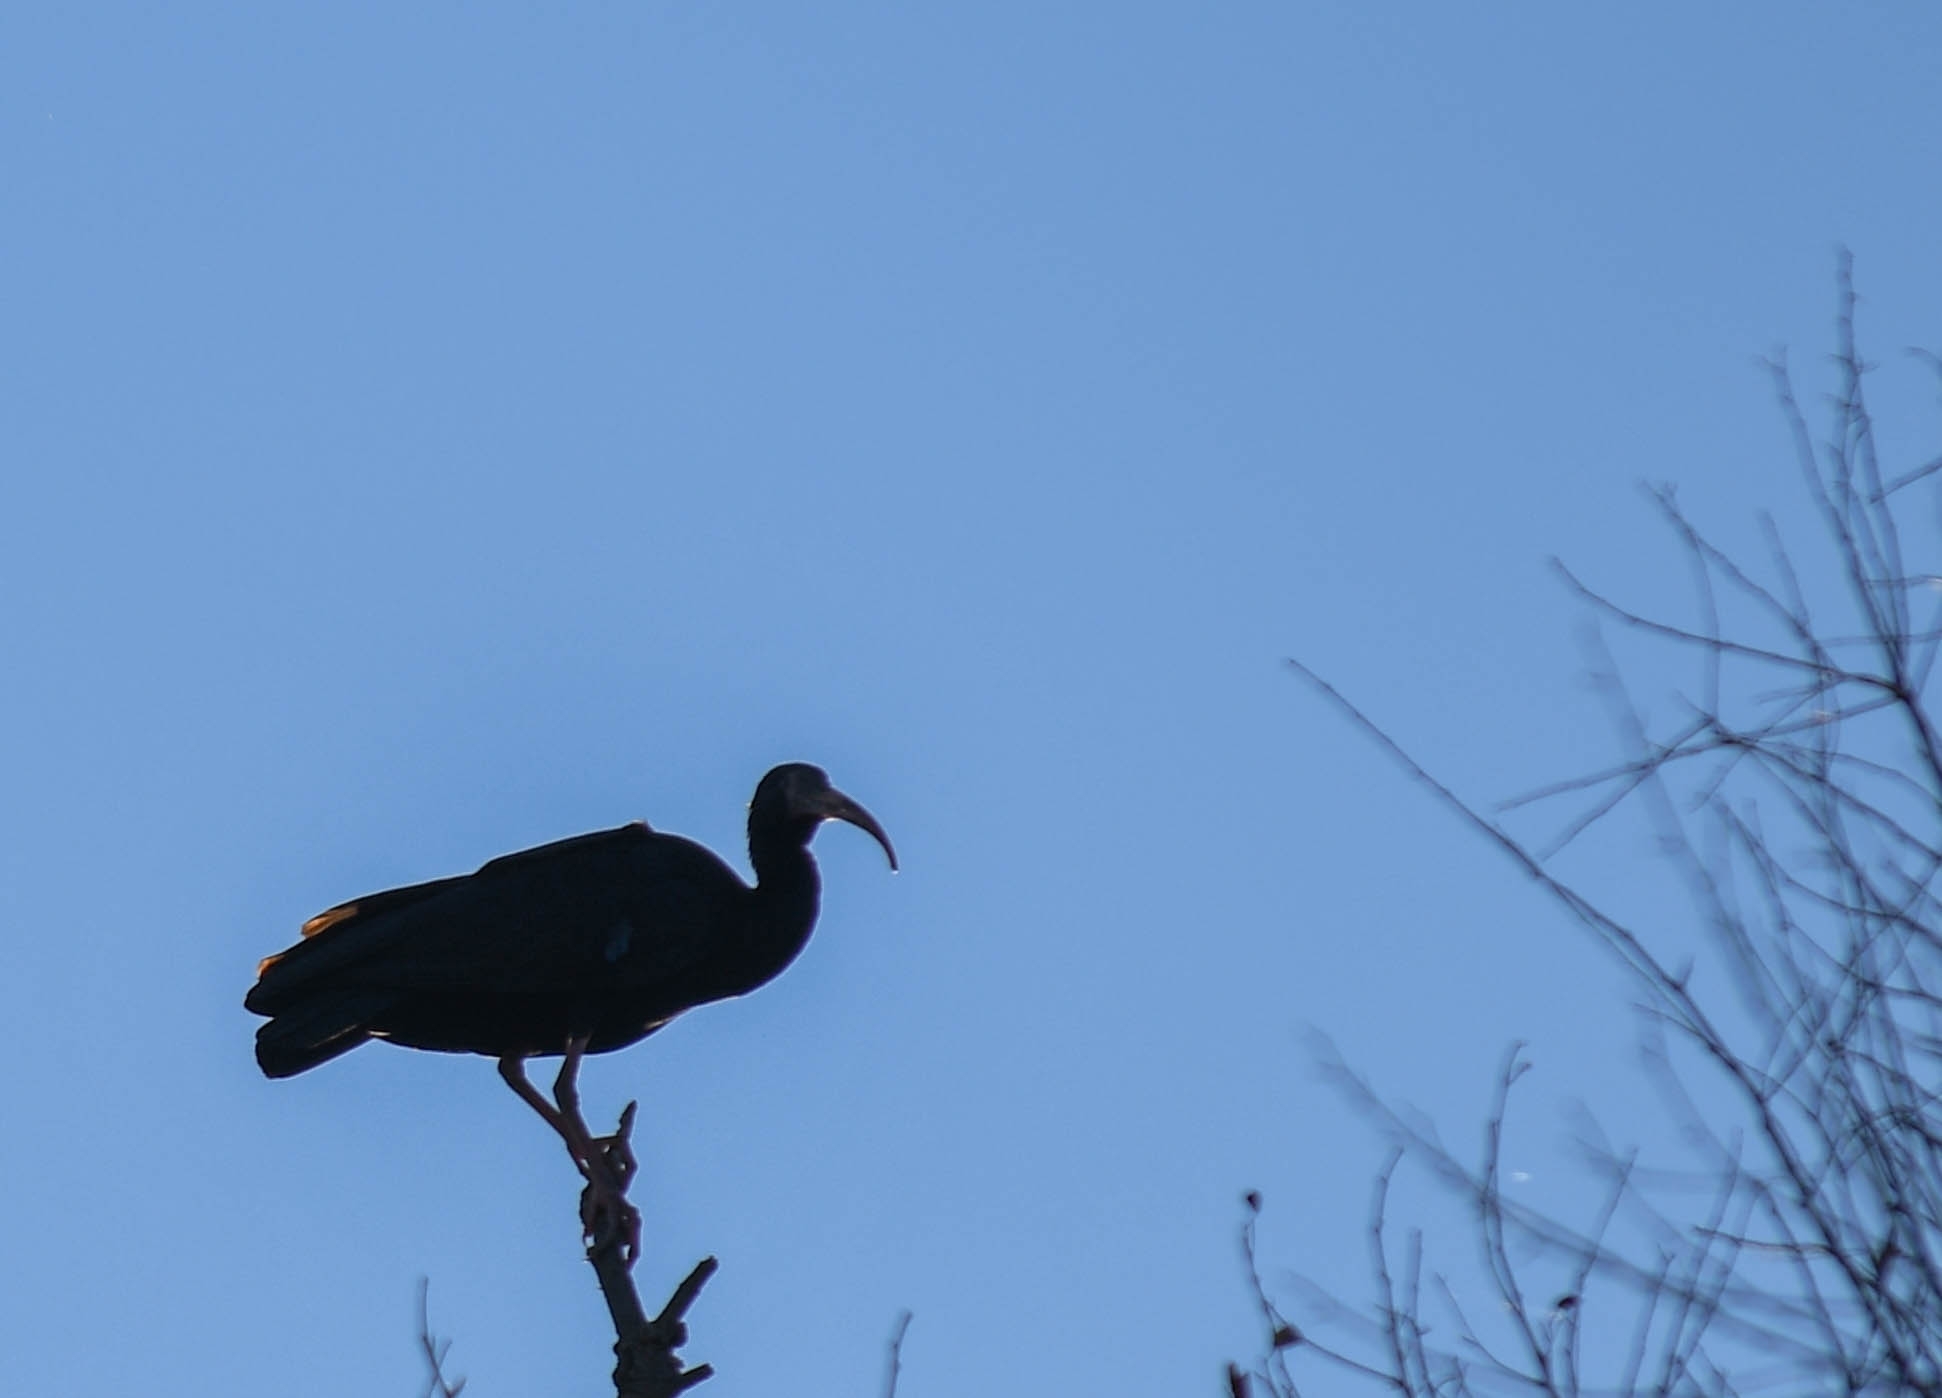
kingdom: Animalia
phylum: Chordata
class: Aves
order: Pelecaniformes
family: Threskiornithidae
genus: Phimosus
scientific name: Phimosus infuscatus
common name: Bare-faced ibis
